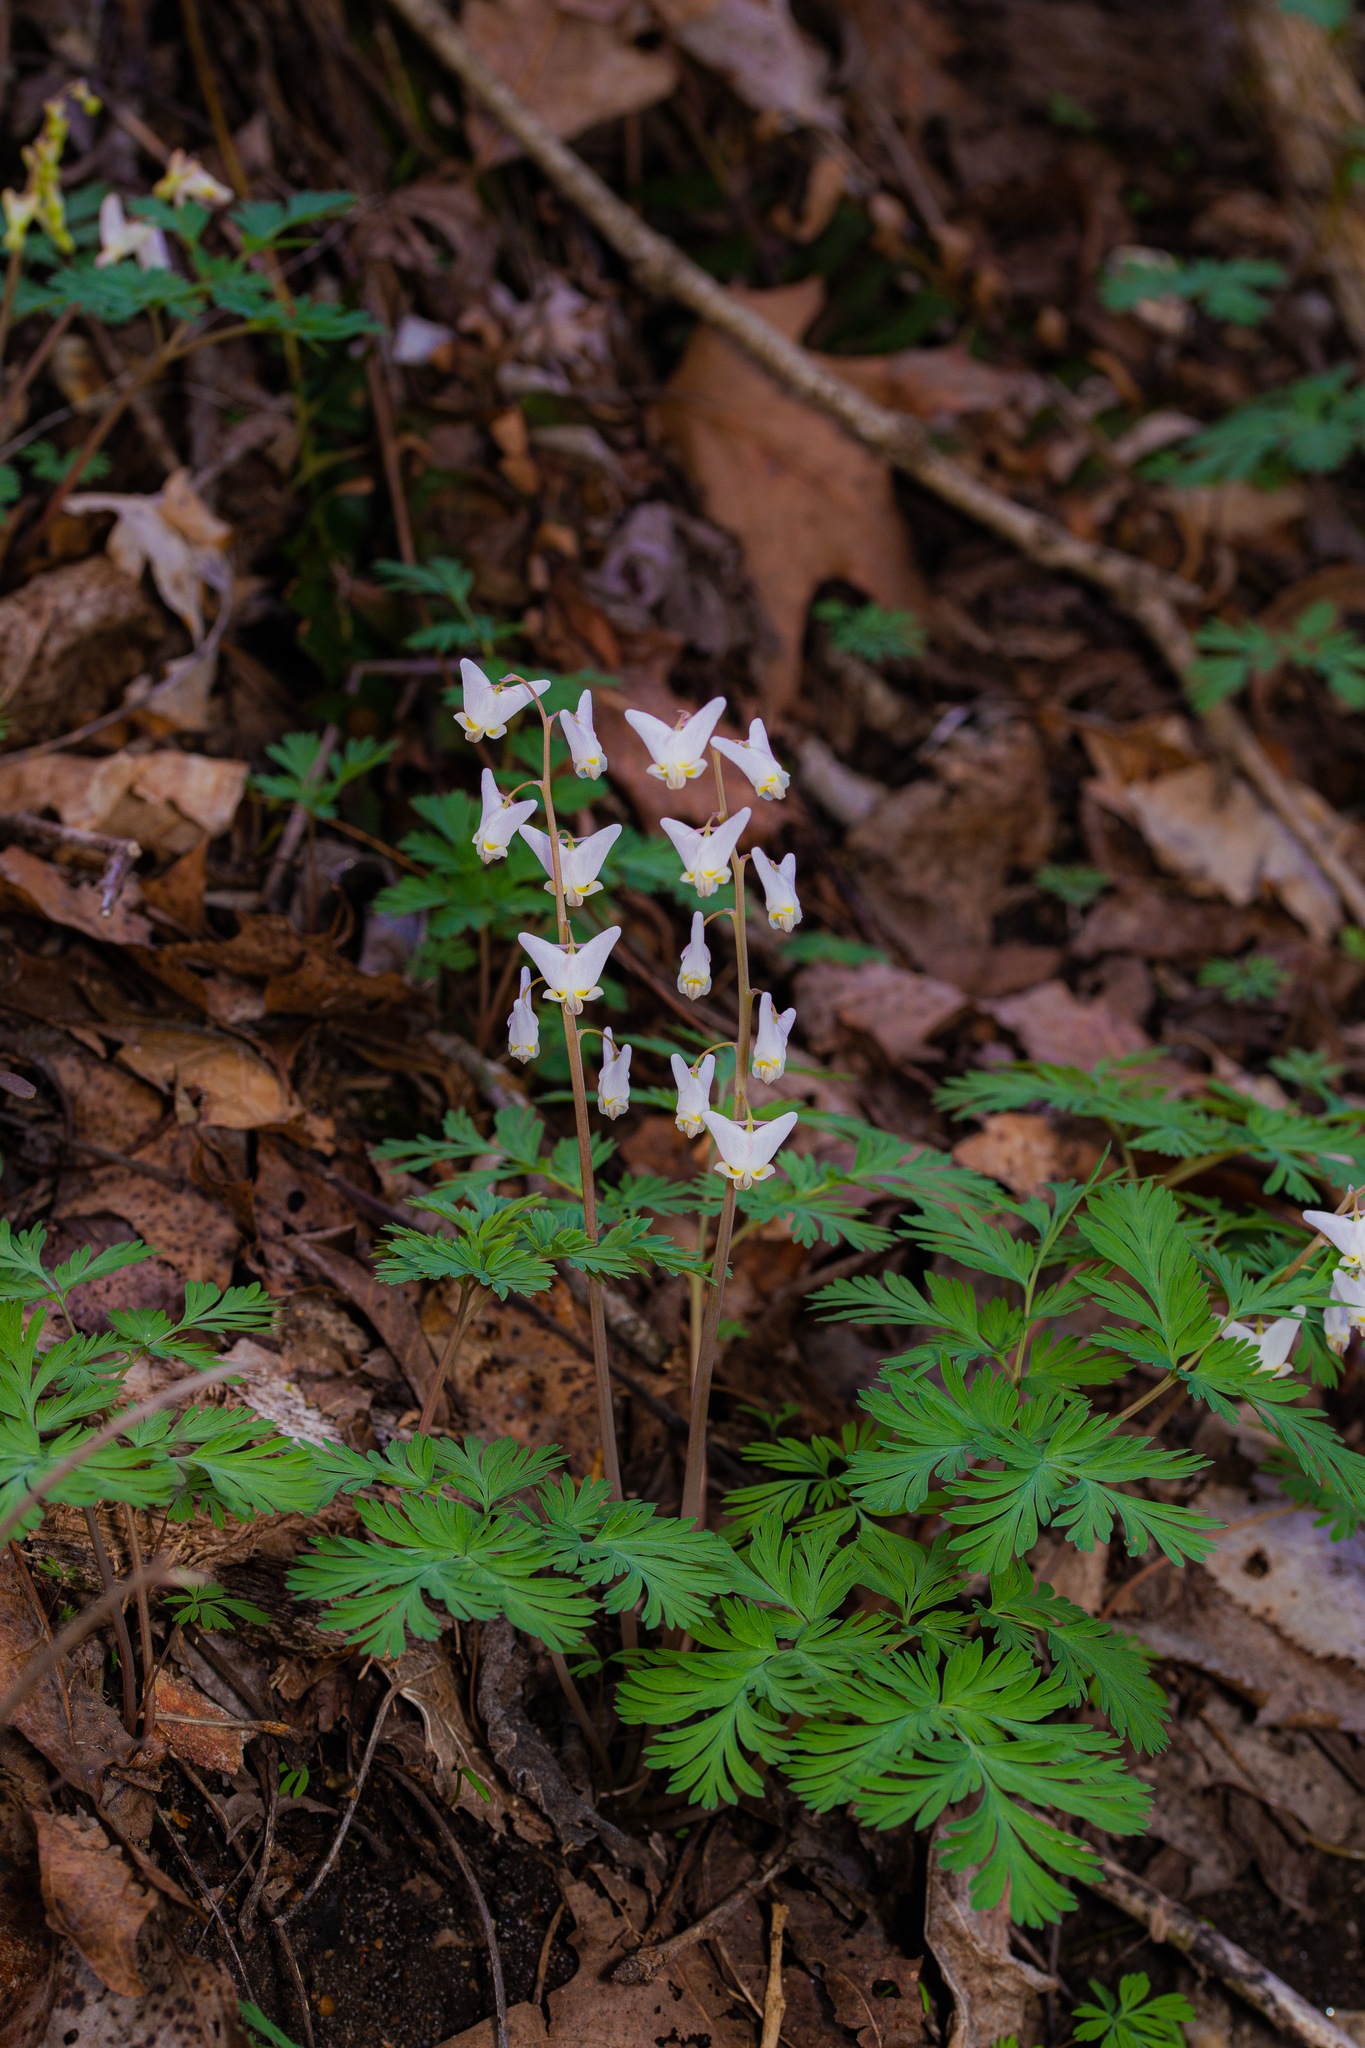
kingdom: Plantae
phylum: Tracheophyta
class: Magnoliopsida
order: Ranunculales
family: Papaveraceae
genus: Dicentra
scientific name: Dicentra cucullaria
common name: Dutchman's breeches
